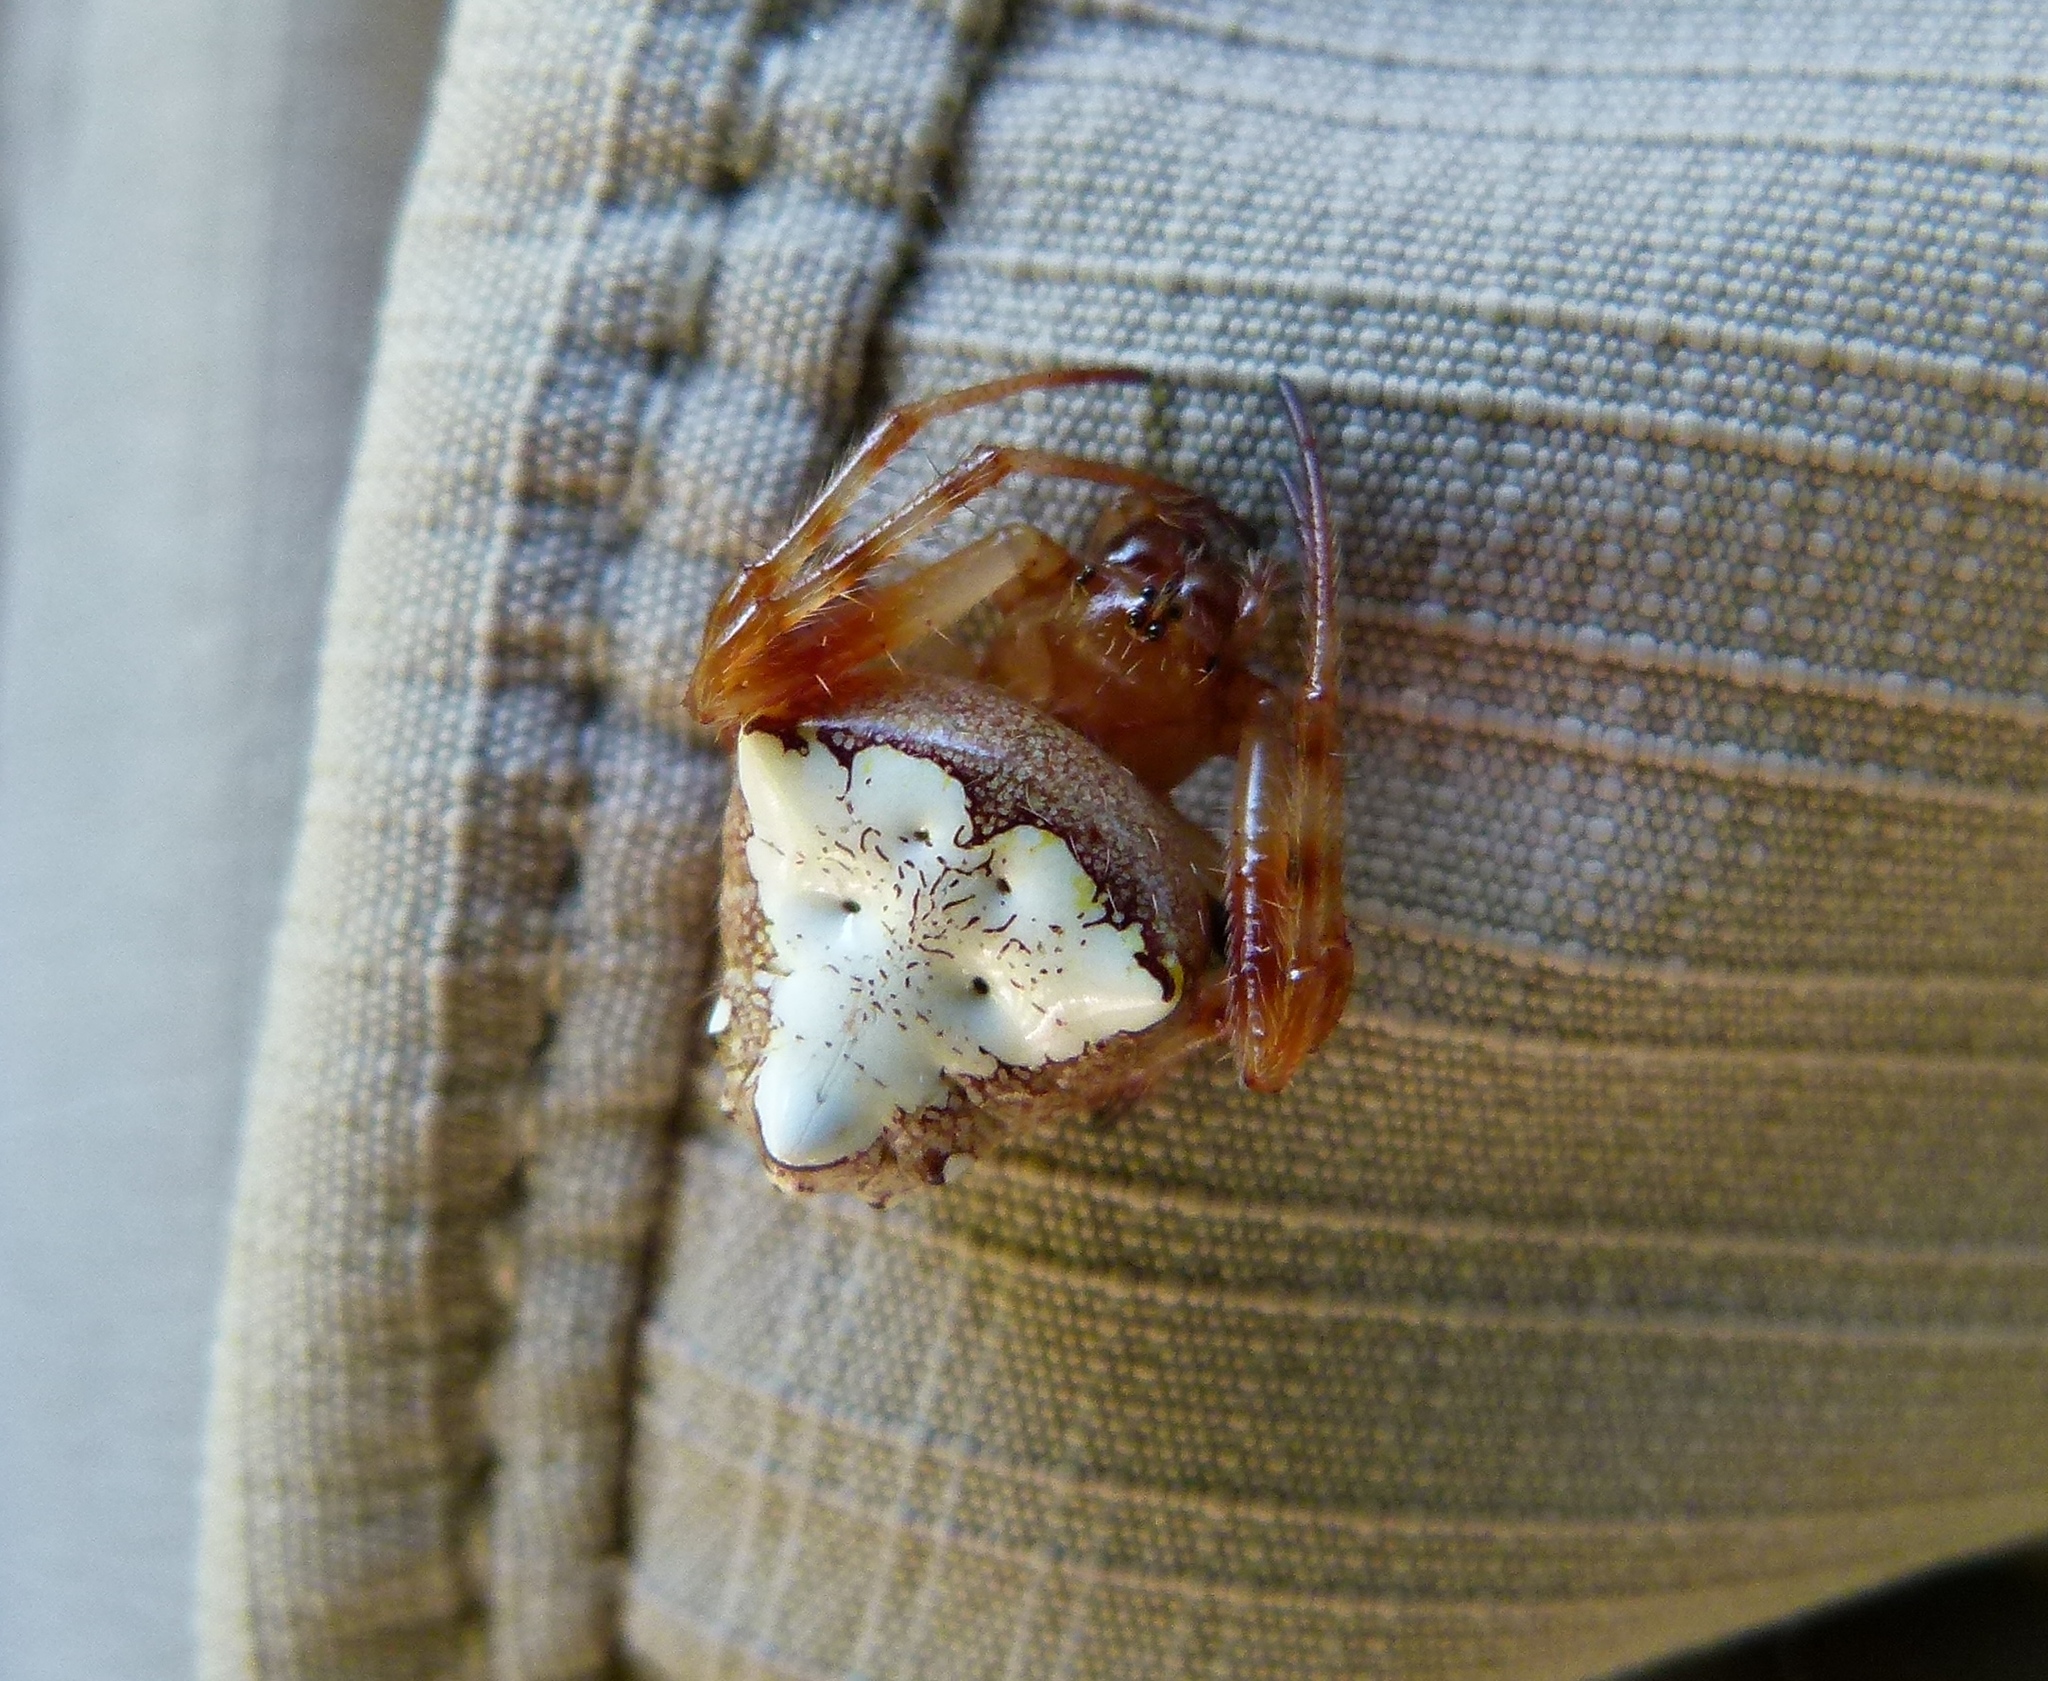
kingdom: Animalia
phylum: Arthropoda
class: Arachnida
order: Araneae
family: Araneidae
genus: Verrucosa
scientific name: Verrucosa arenata
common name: Orb weavers
